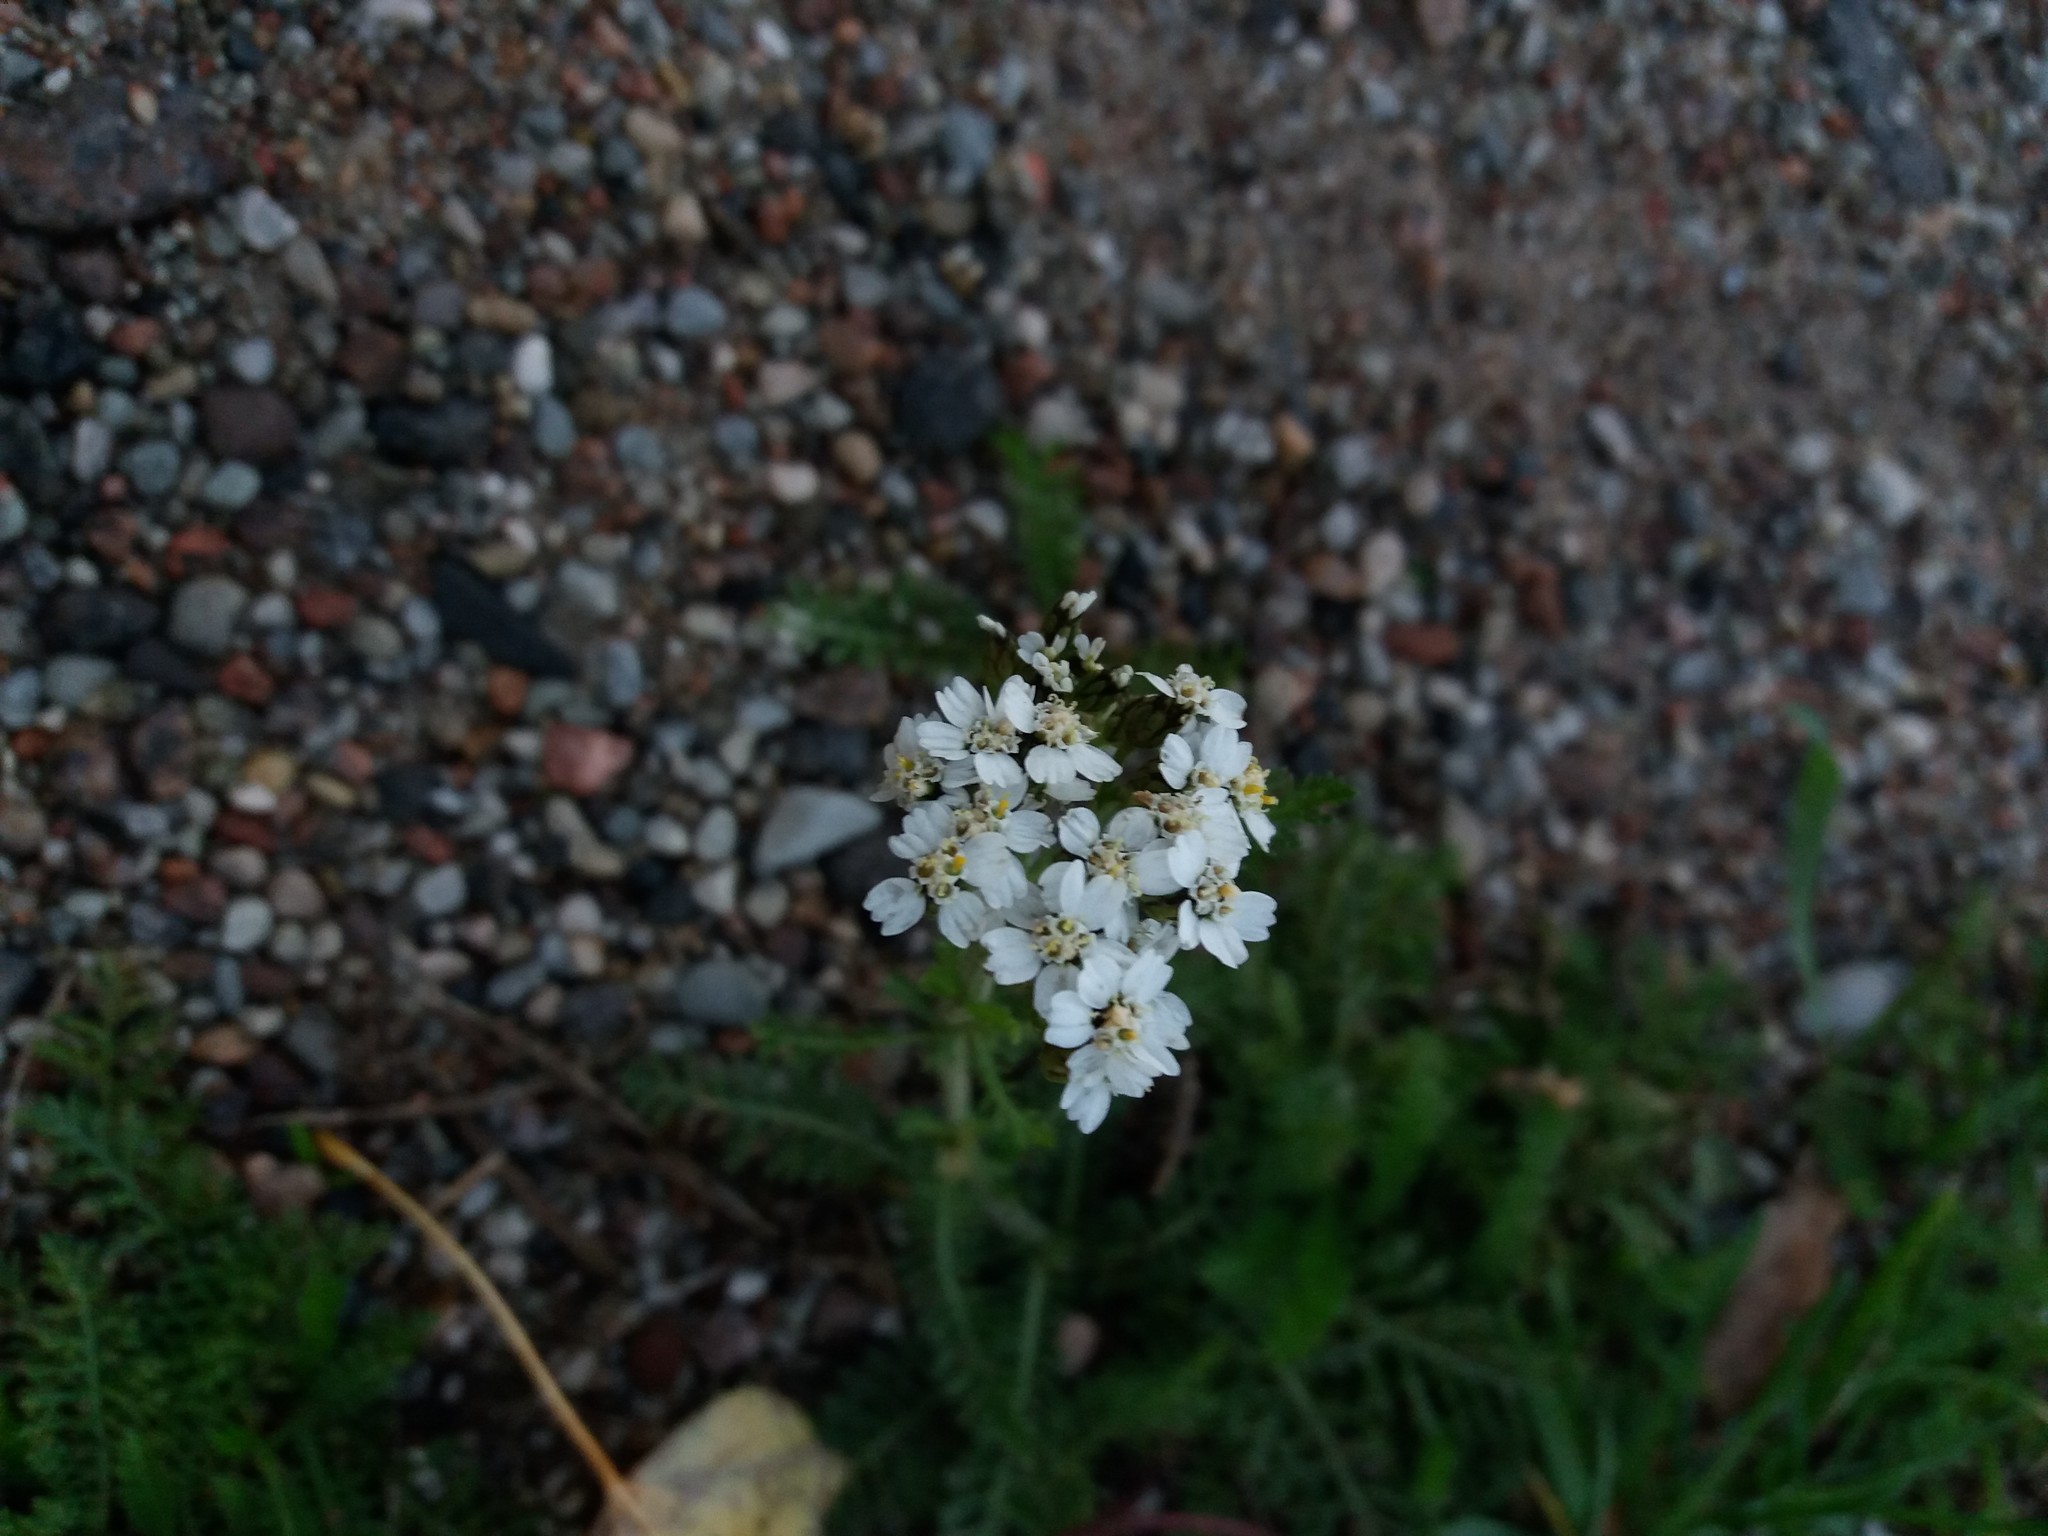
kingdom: Plantae
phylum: Tracheophyta
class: Magnoliopsida
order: Asterales
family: Asteraceae
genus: Achillea
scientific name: Achillea millefolium
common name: Yarrow
